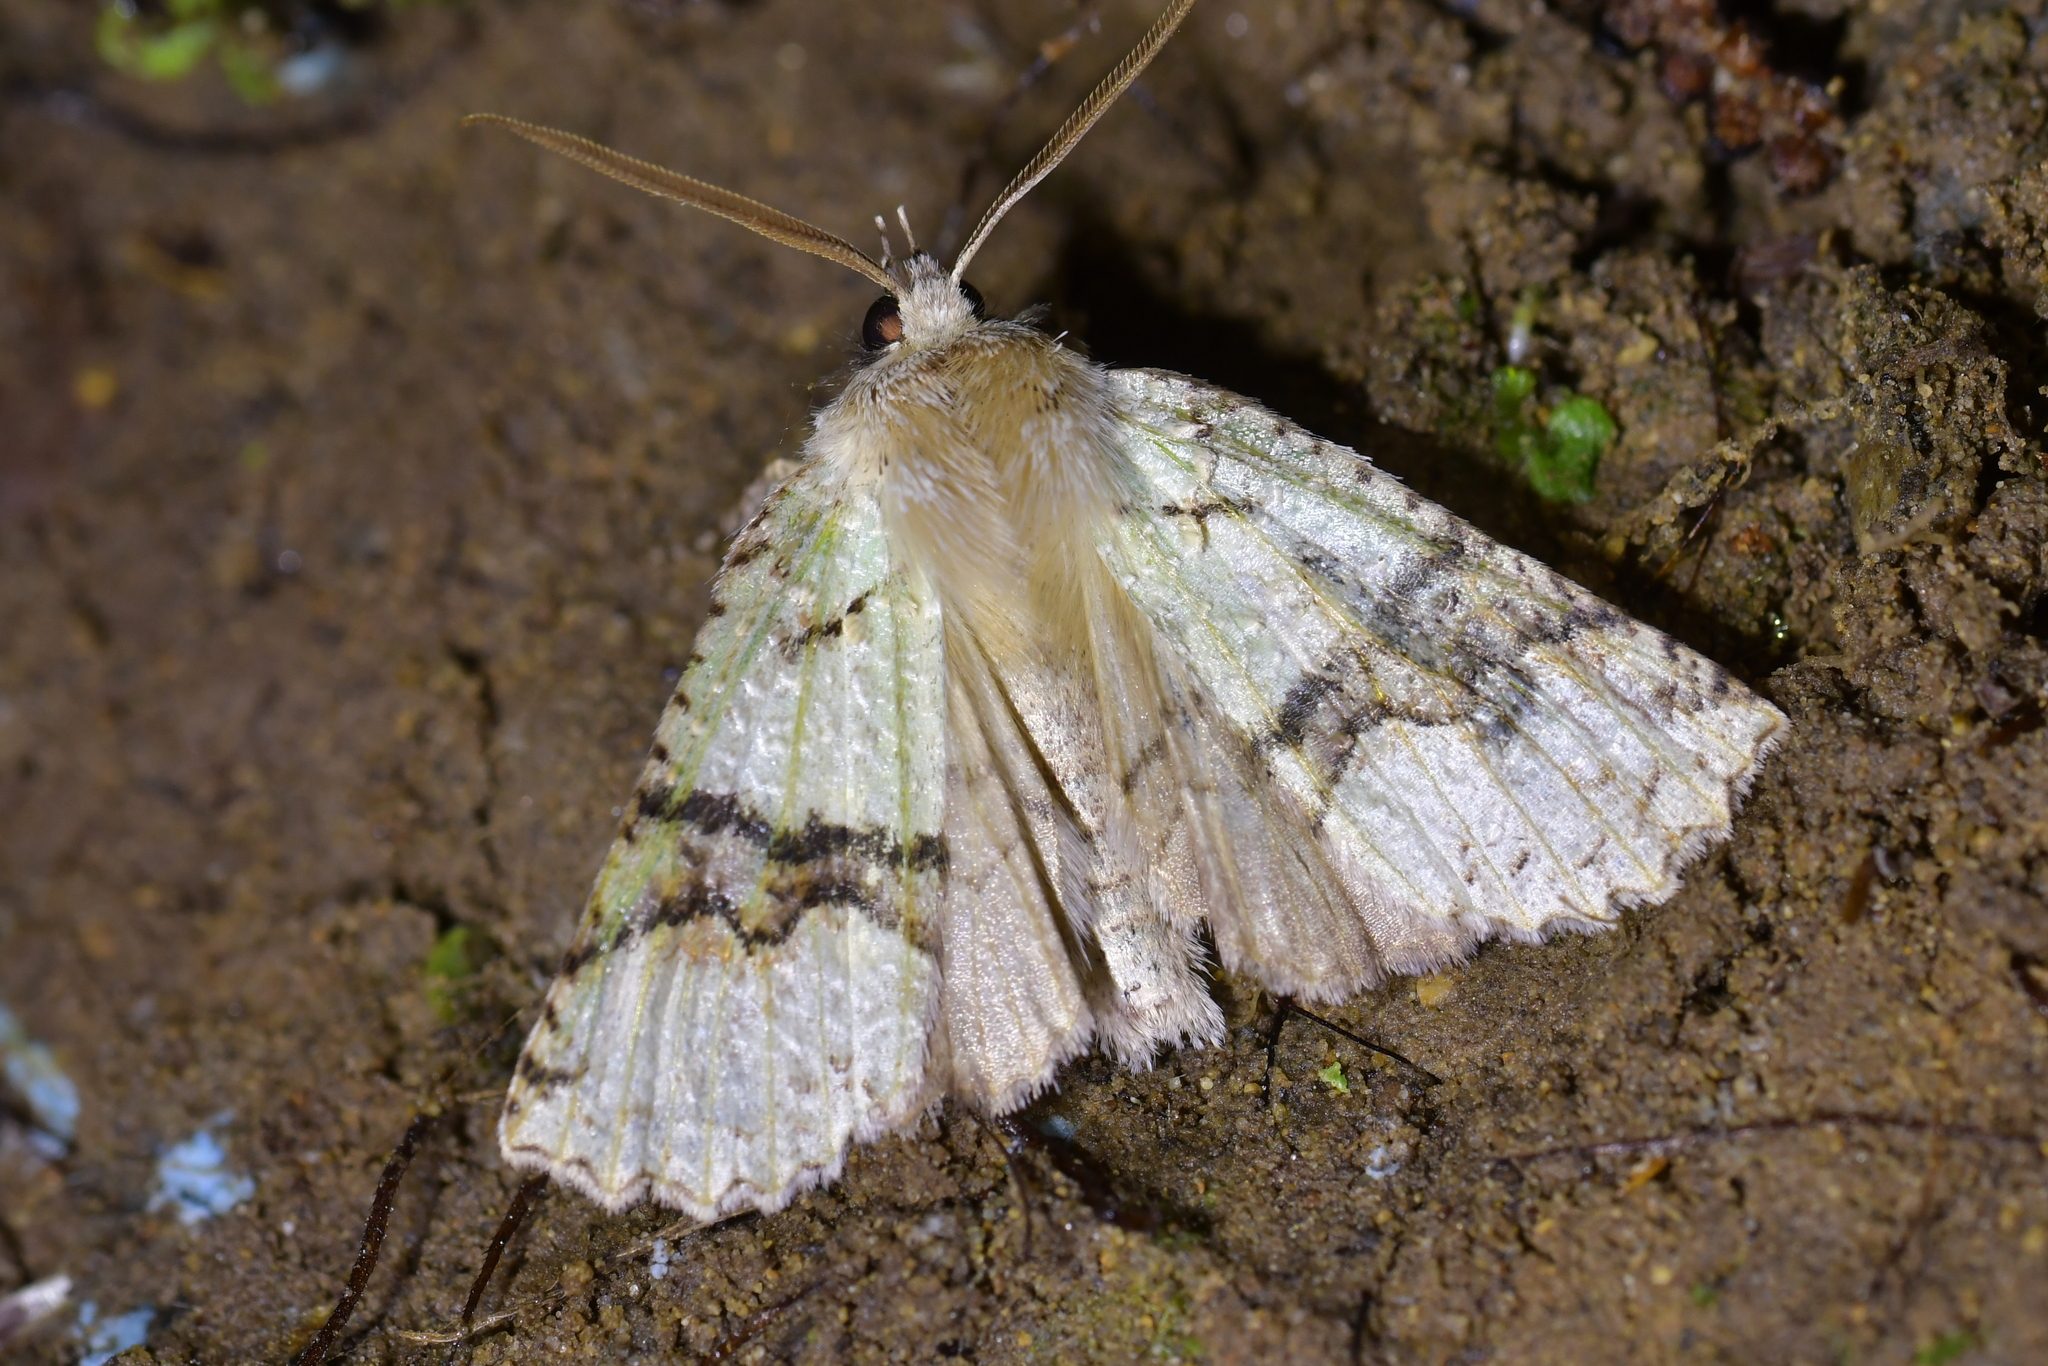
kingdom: Animalia
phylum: Arthropoda
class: Insecta
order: Lepidoptera
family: Geometridae
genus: Declana
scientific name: Declana floccosa
